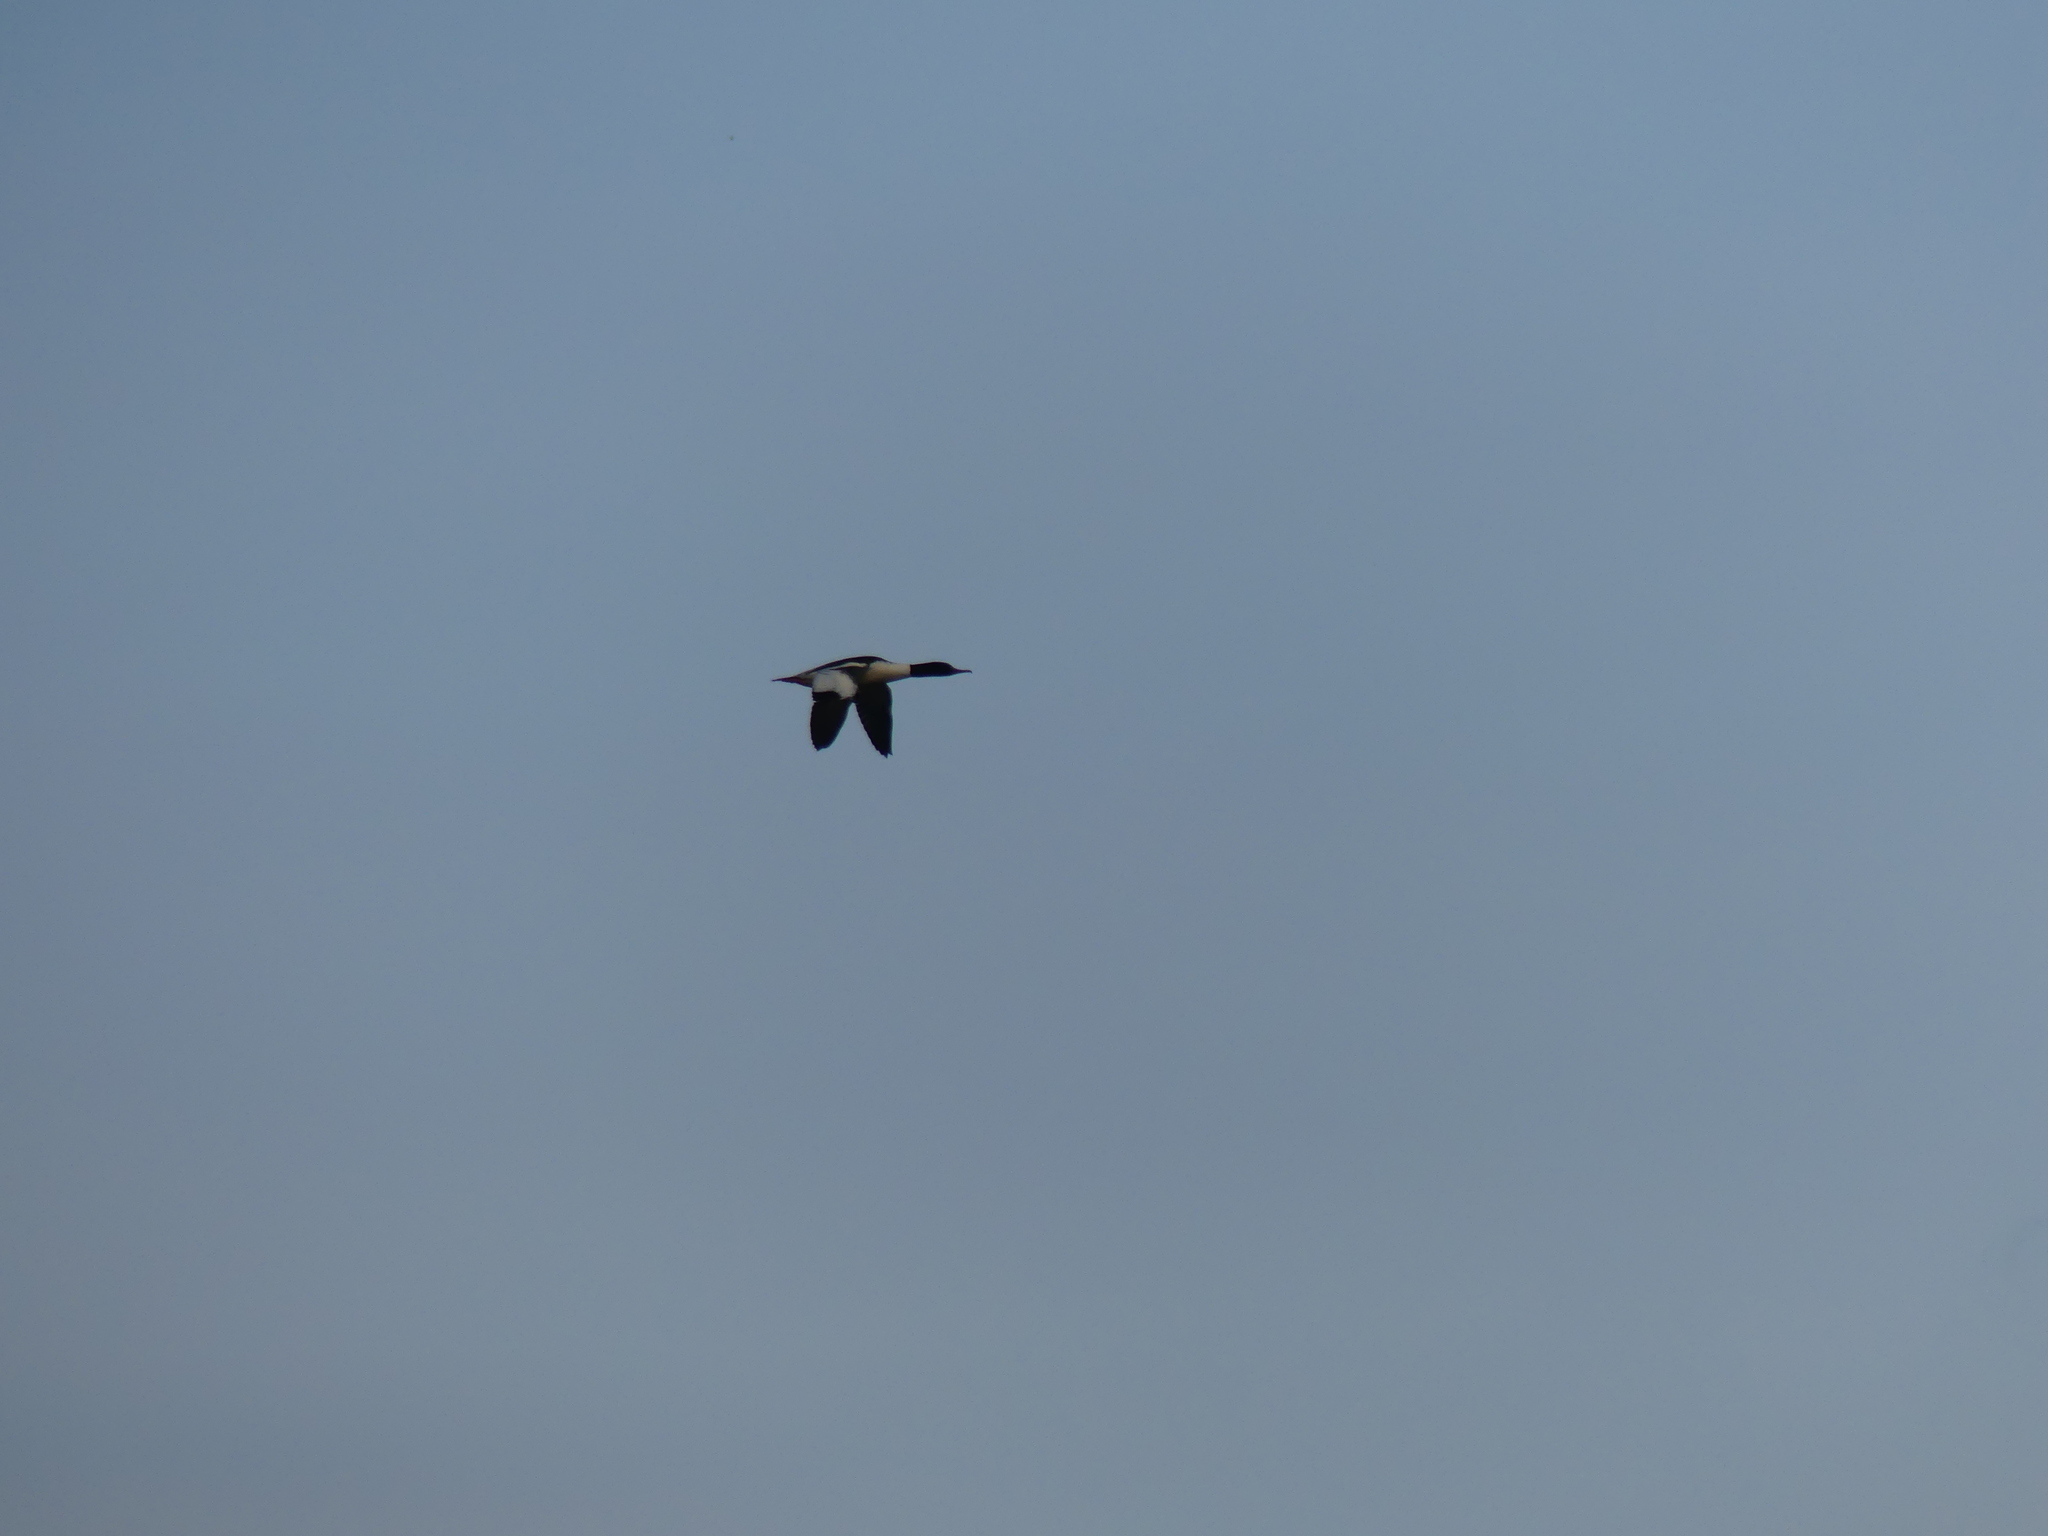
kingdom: Animalia
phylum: Chordata
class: Aves
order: Anseriformes
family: Anatidae
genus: Mergus
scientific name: Mergus merganser
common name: Common merganser
